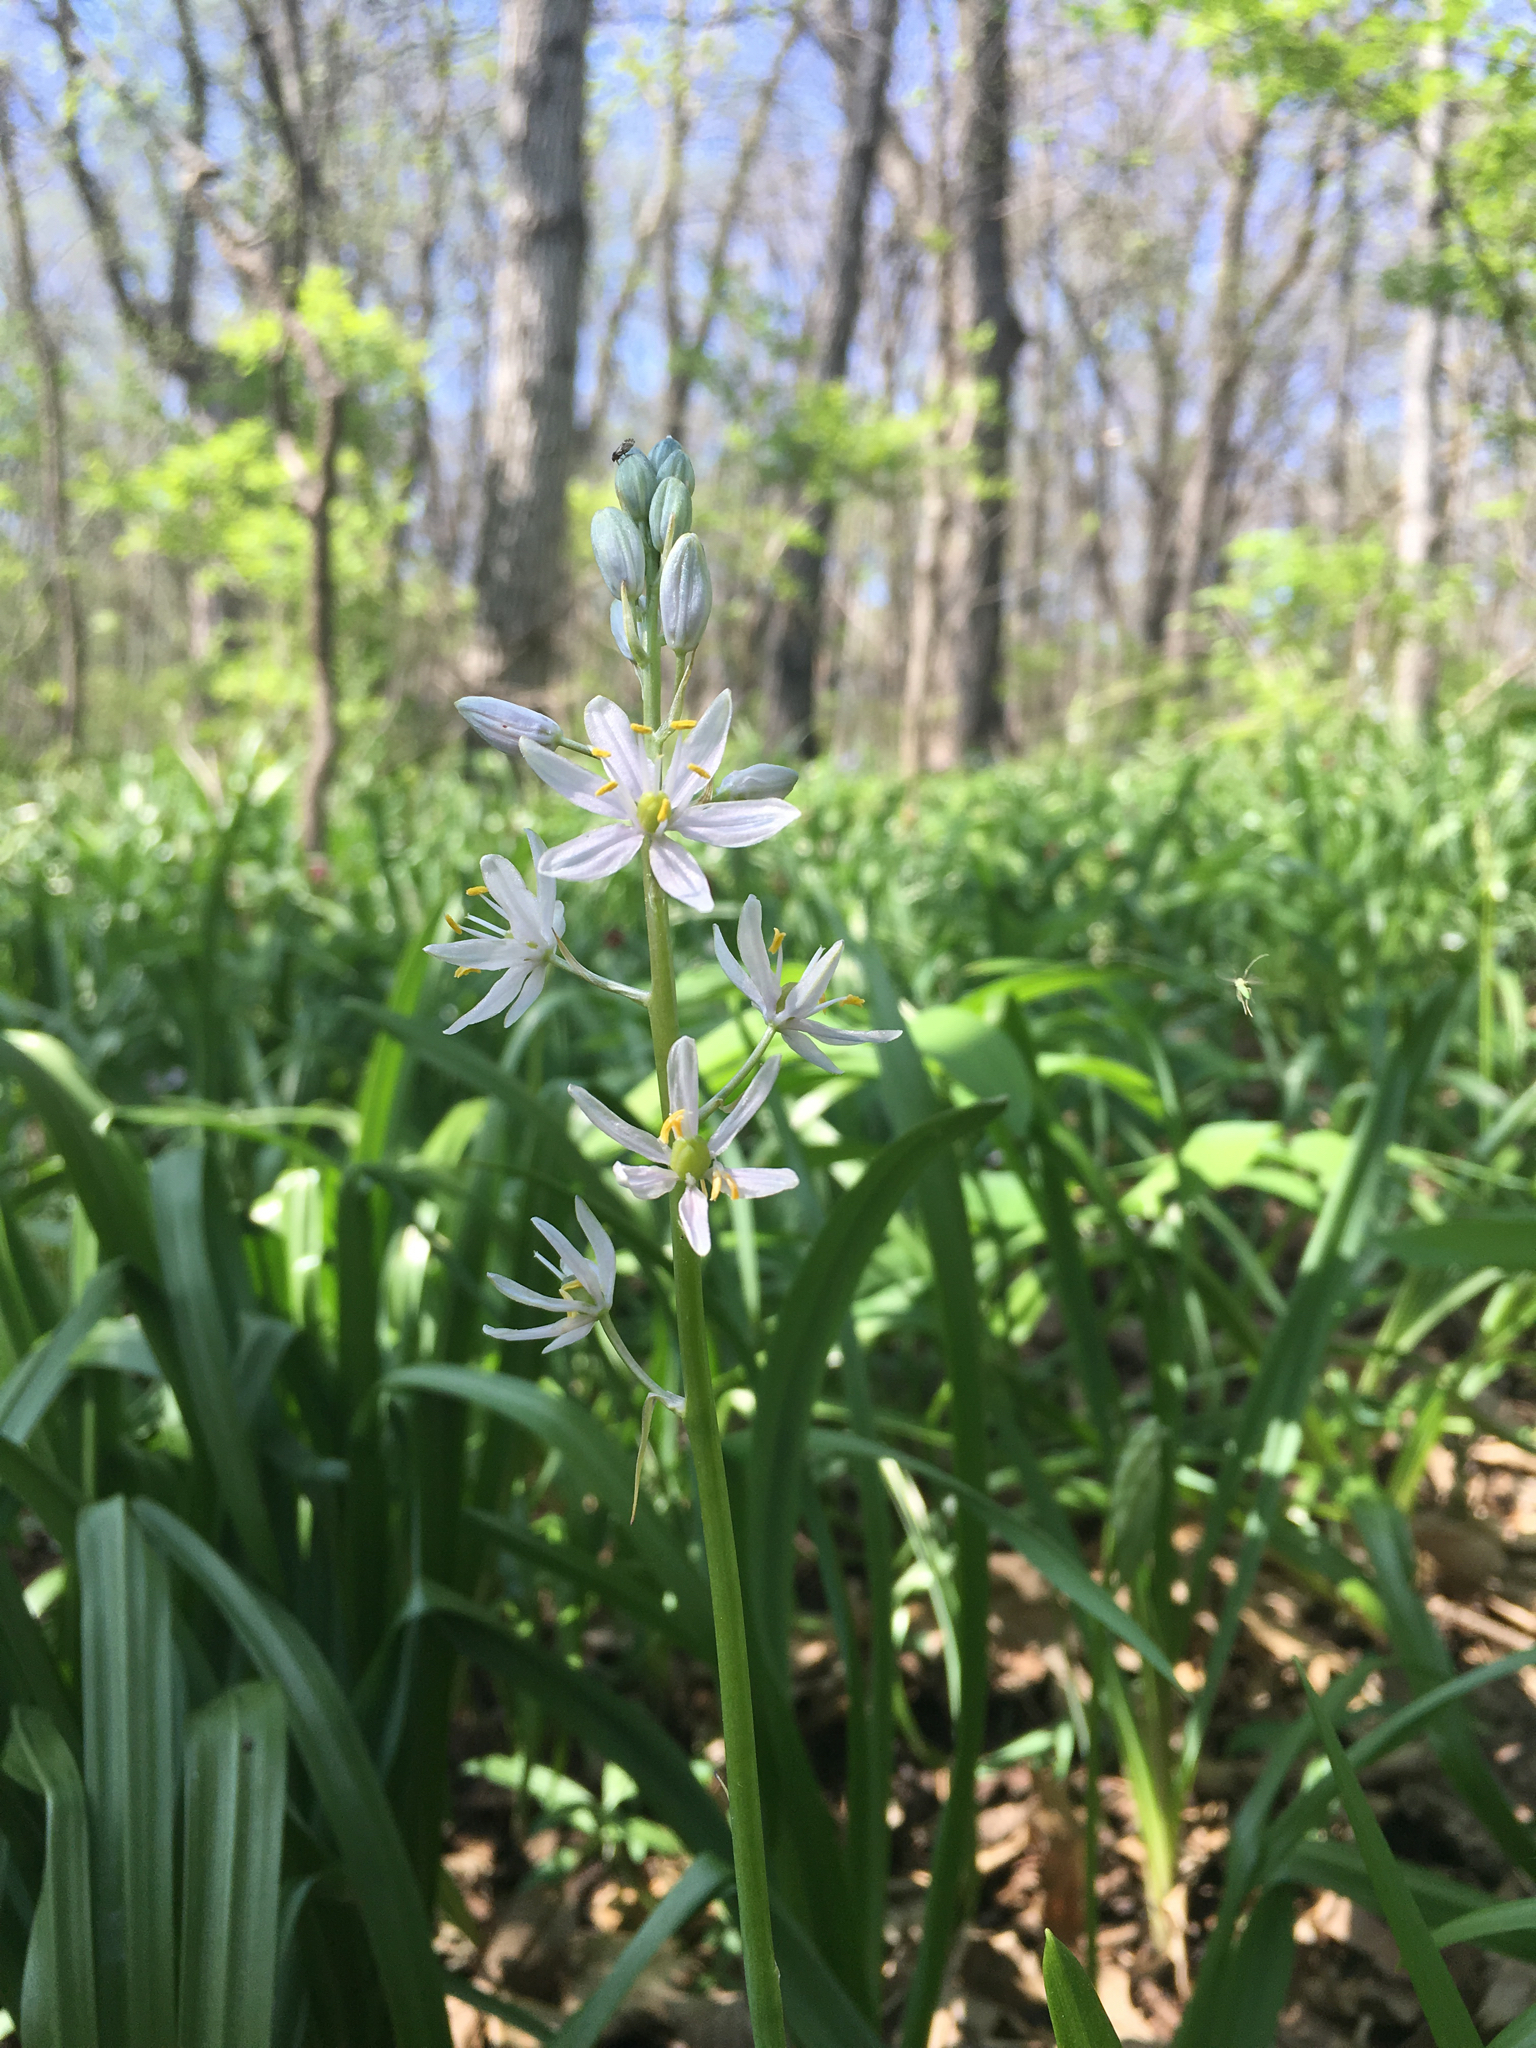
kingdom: Plantae
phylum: Tracheophyta
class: Liliopsida
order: Asparagales
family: Asparagaceae
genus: Camassia
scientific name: Camassia scilloides
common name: Wild hyacinth
